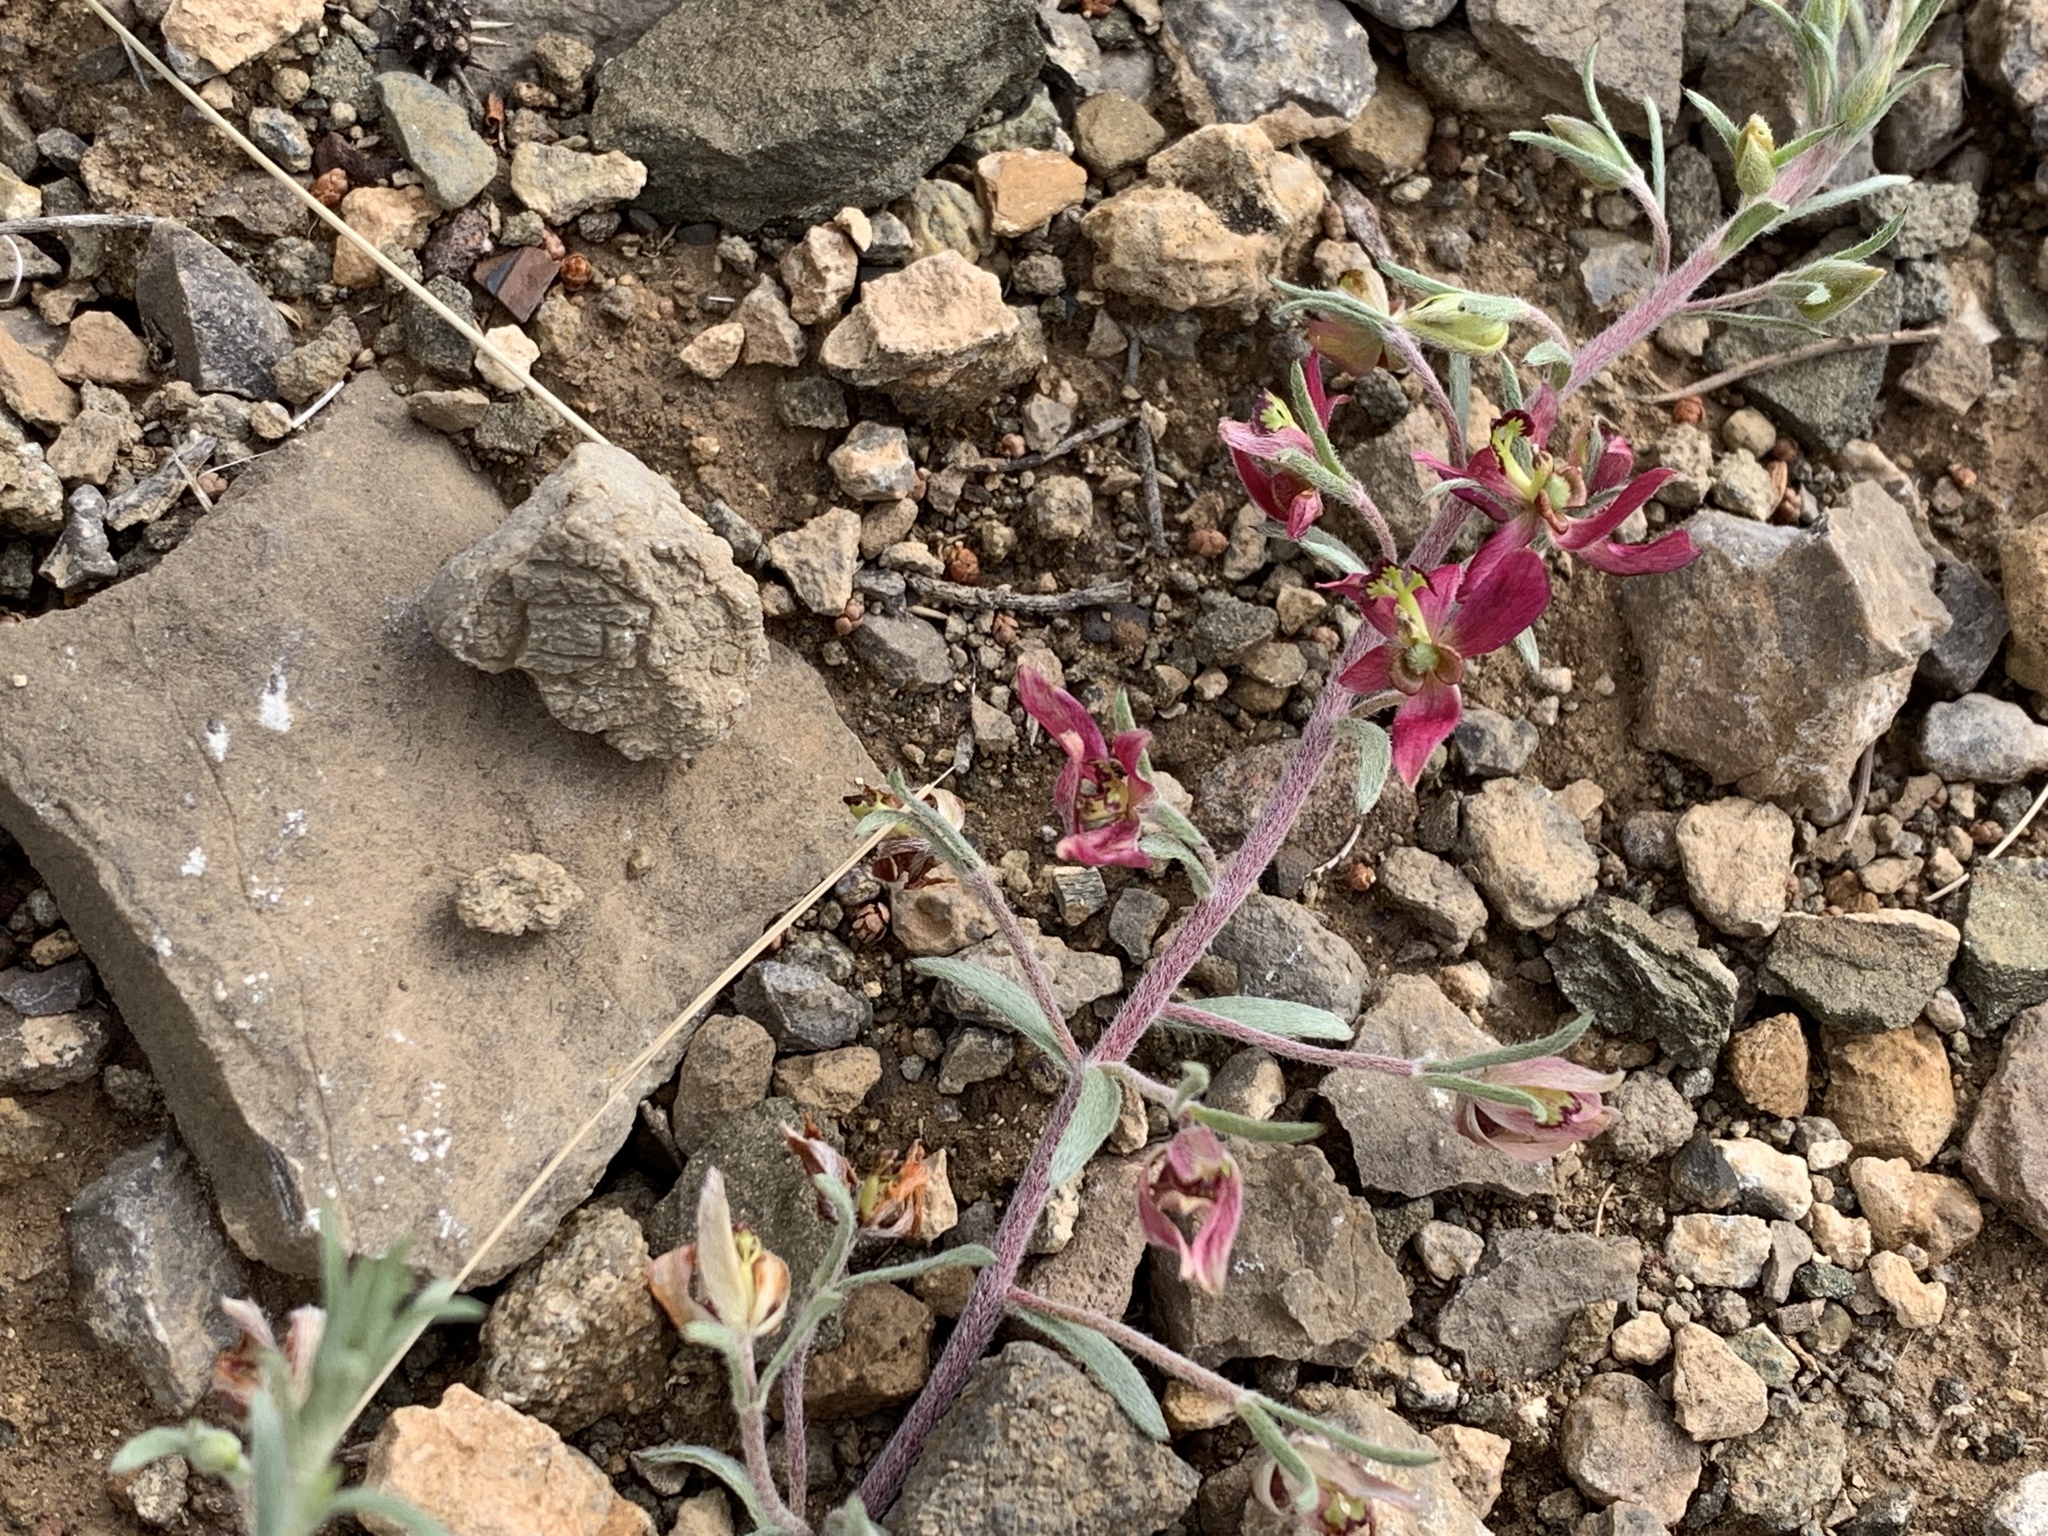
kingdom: Plantae
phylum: Tracheophyta
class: Magnoliopsida
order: Zygophyllales
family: Krameriaceae
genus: Krameria
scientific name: Krameria lanceolata
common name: Ratany
